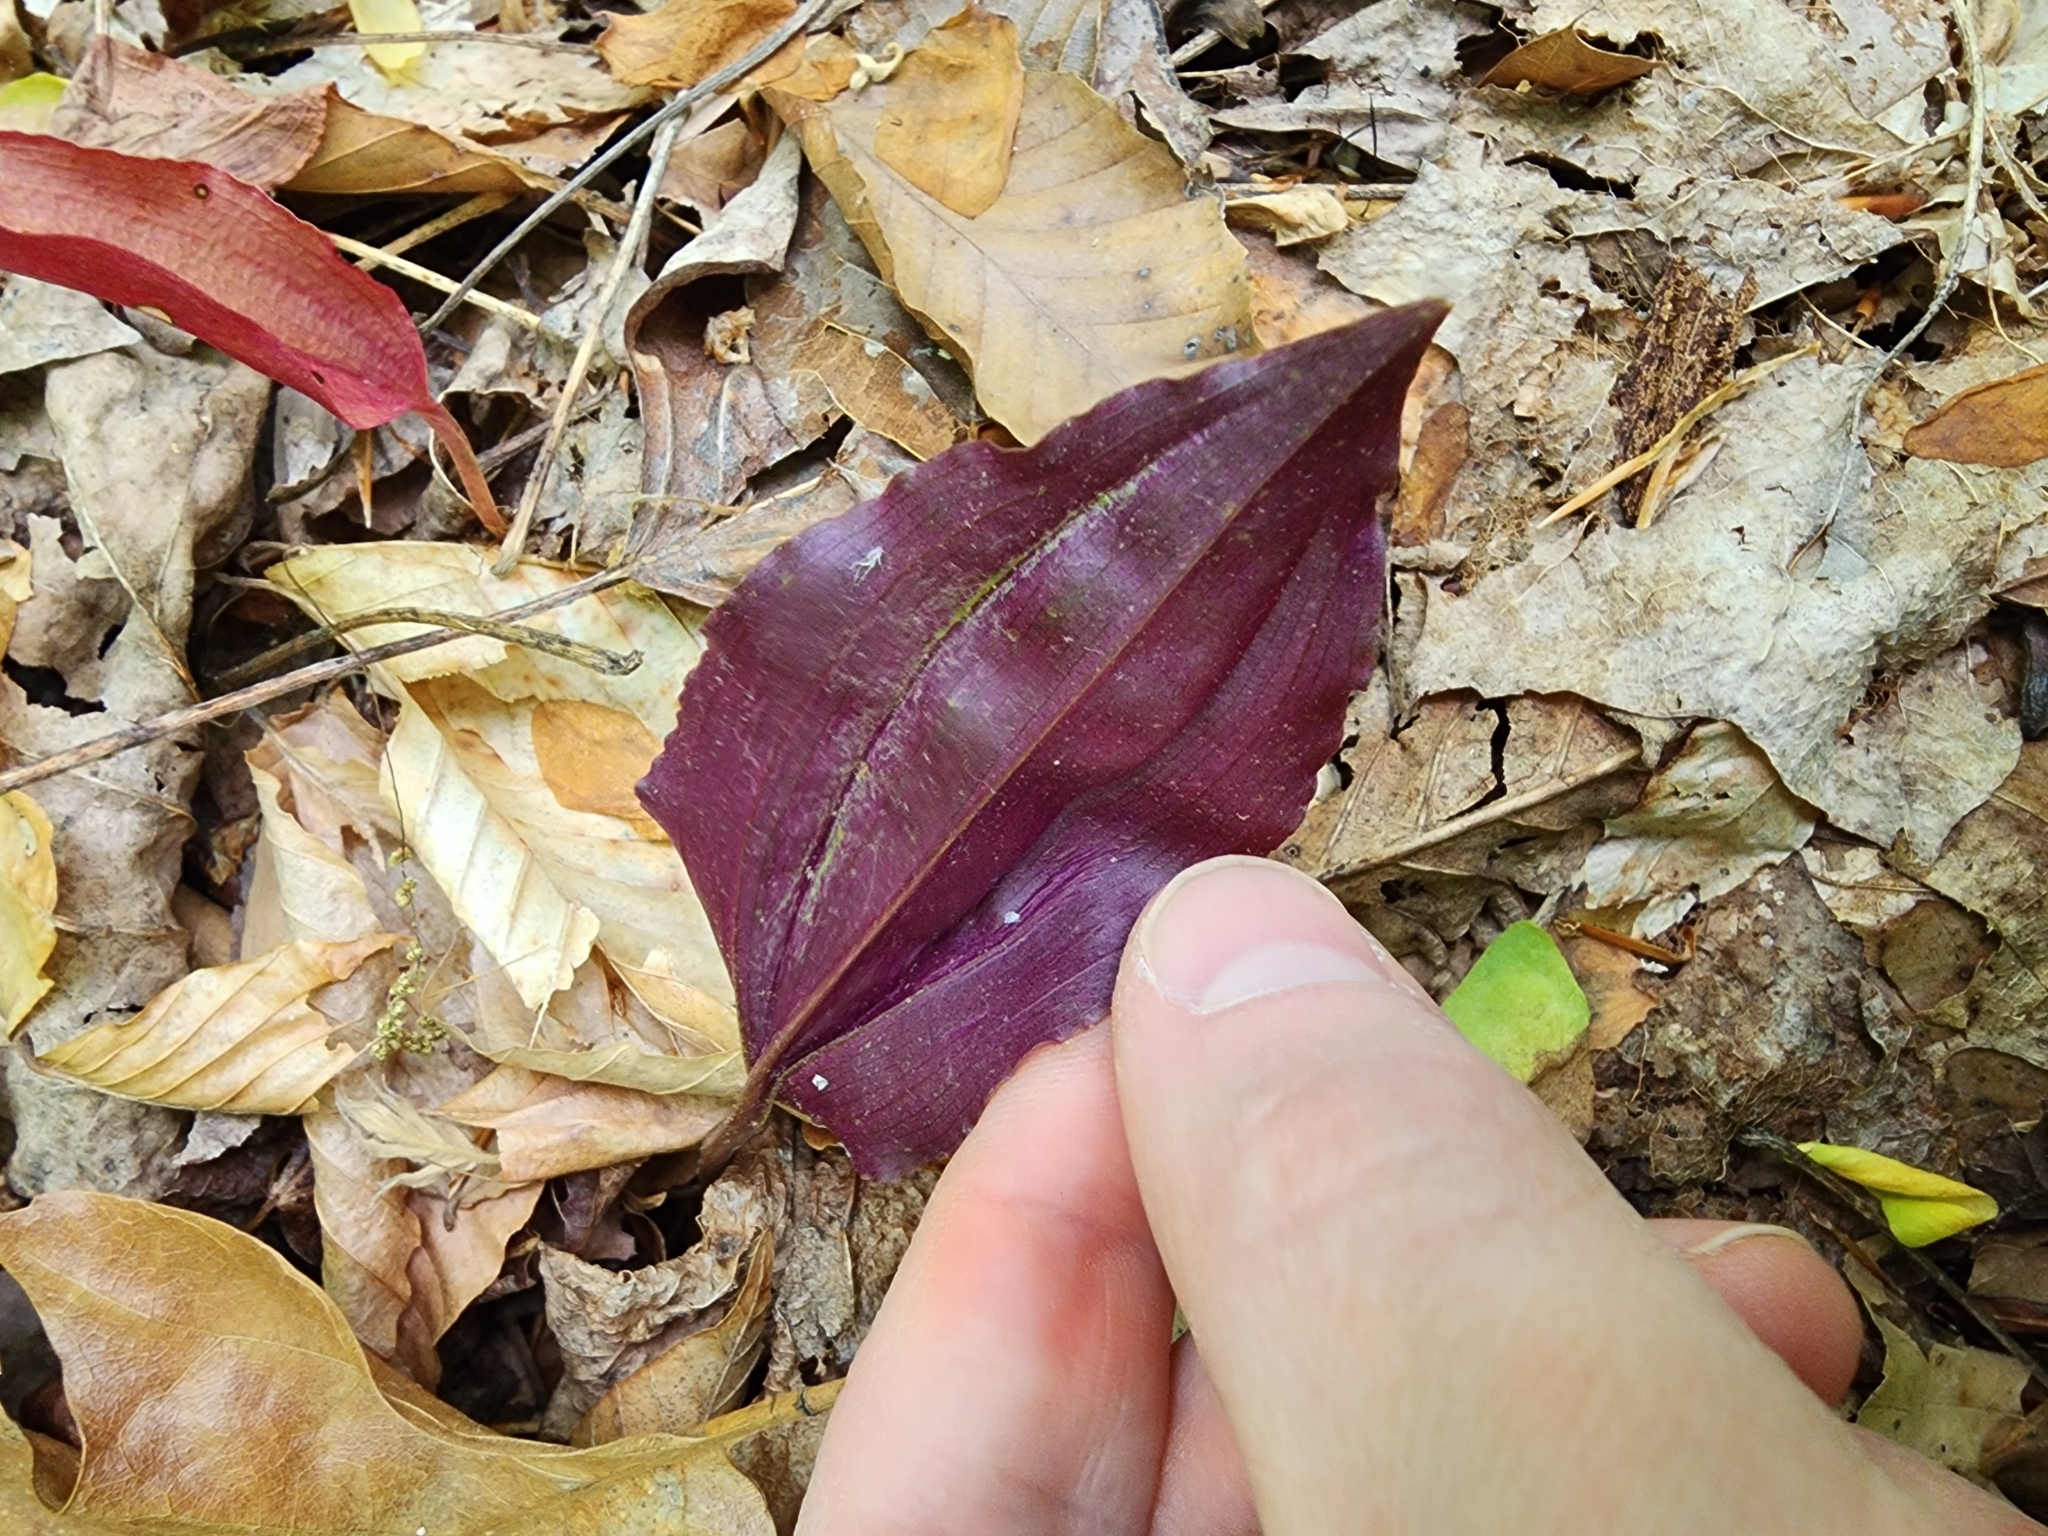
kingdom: Plantae
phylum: Tracheophyta
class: Liliopsida
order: Asparagales
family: Orchidaceae
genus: Tipularia
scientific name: Tipularia discolor
